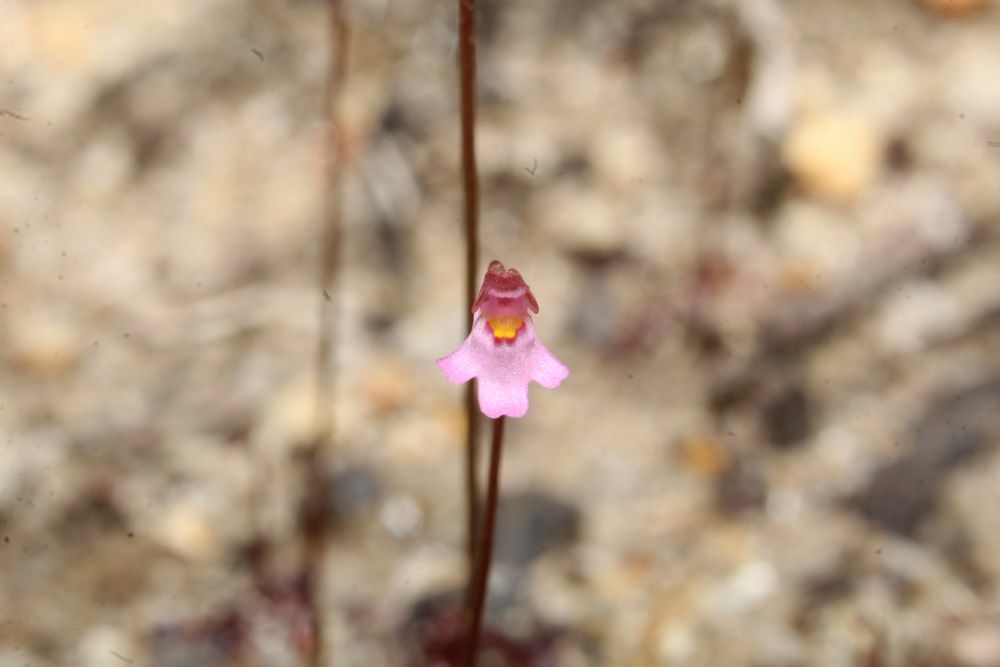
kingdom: Plantae
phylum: Tracheophyta
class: Magnoliopsida
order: Lamiales
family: Lentibulariaceae
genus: Utricularia
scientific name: Utricularia multifida
